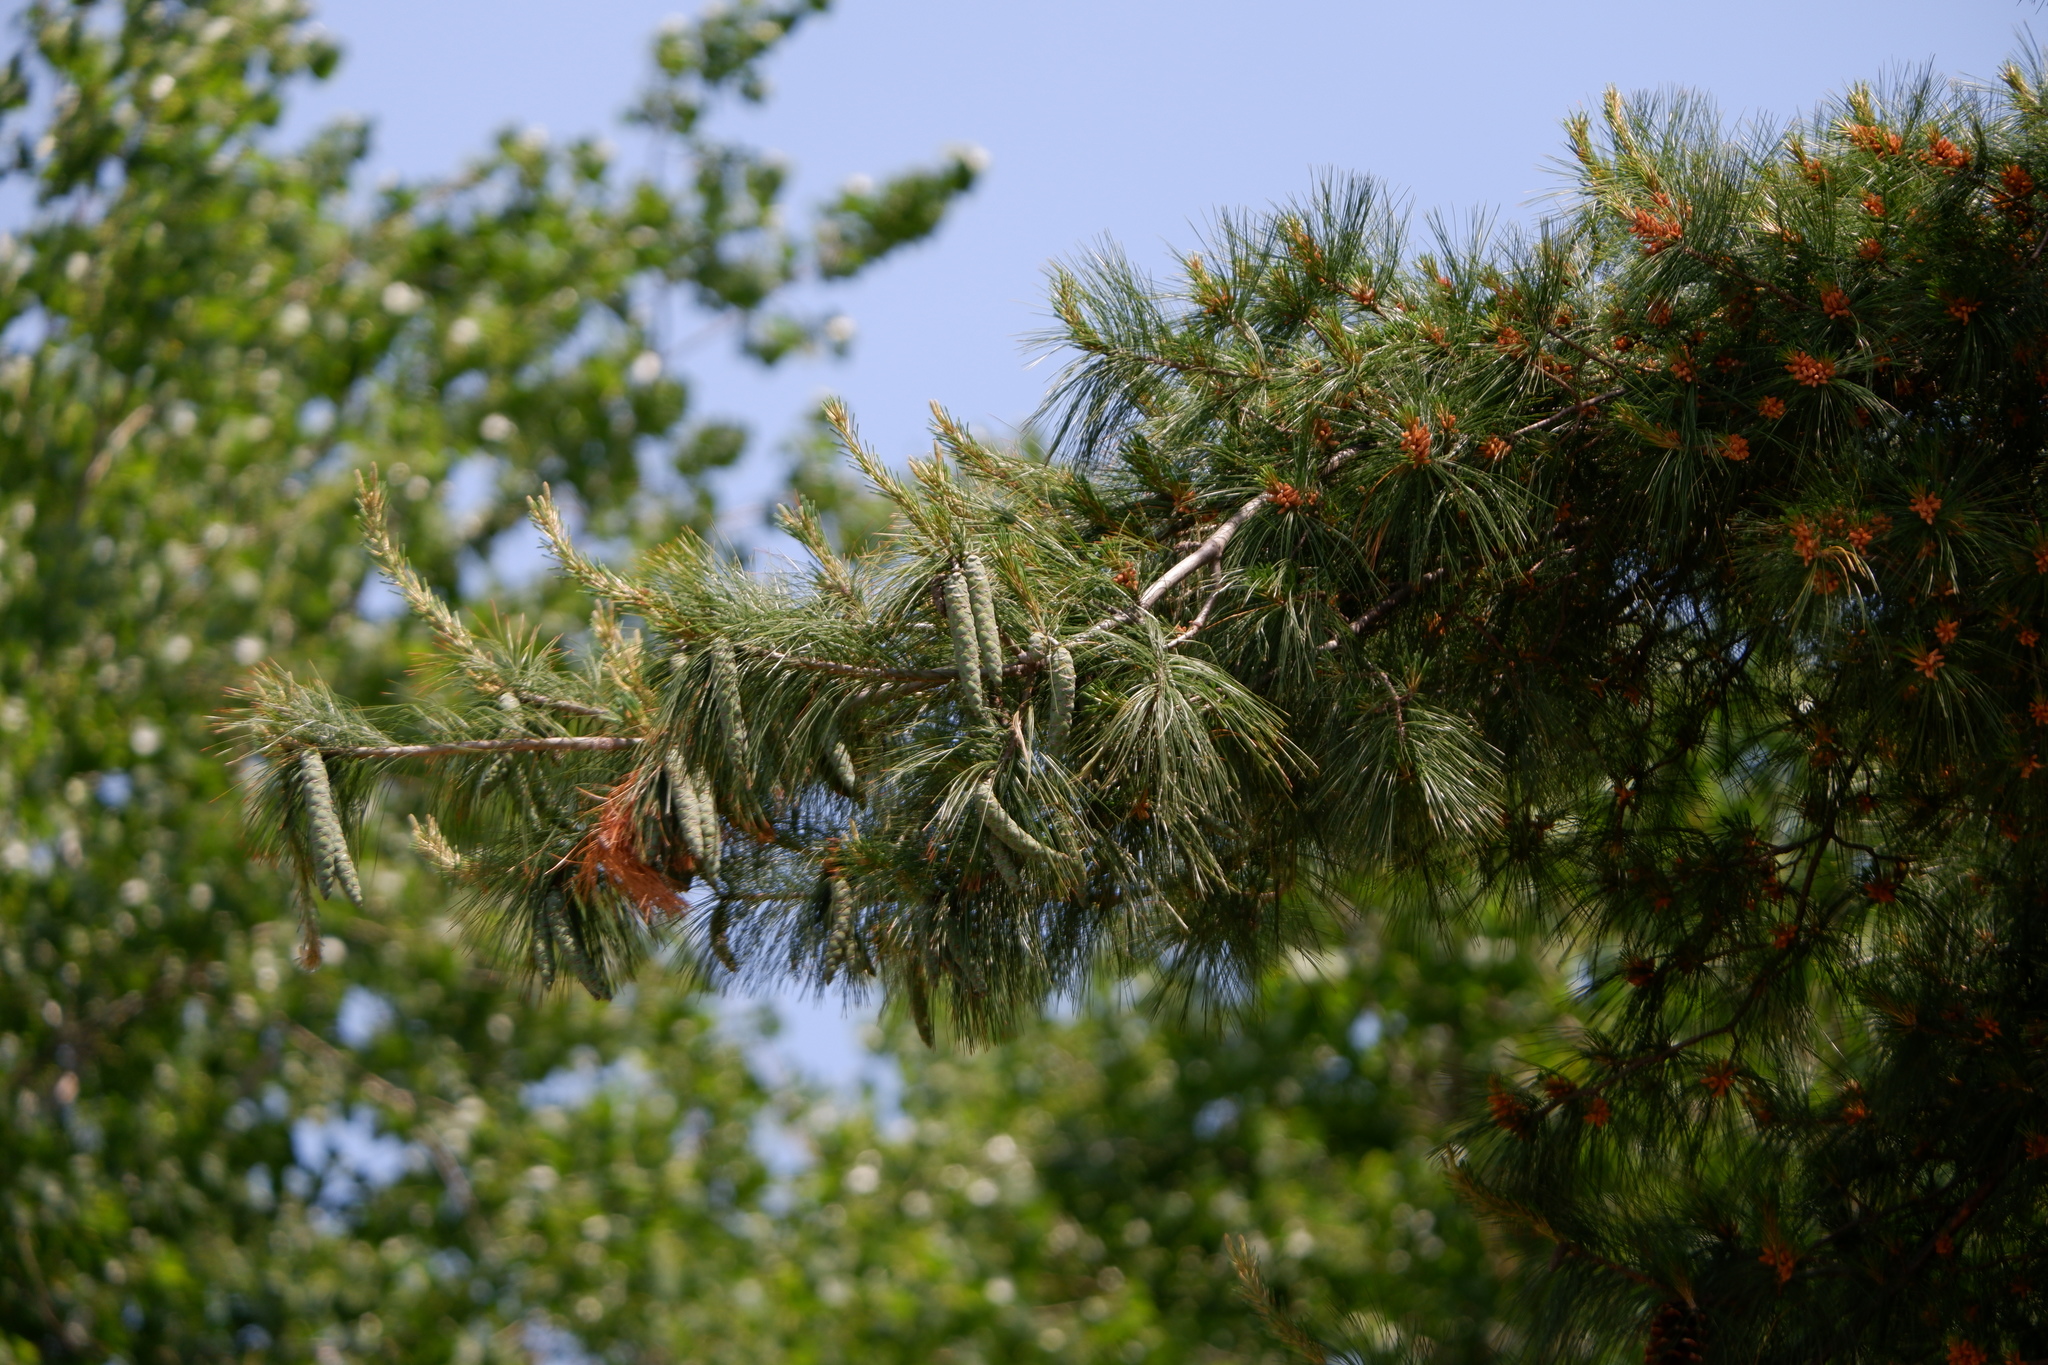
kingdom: Plantae
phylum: Tracheophyta
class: Pinopsida
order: Pinales
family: Pinaceae
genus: Pinus
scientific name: Pinus strobus
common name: Weymouth pine
